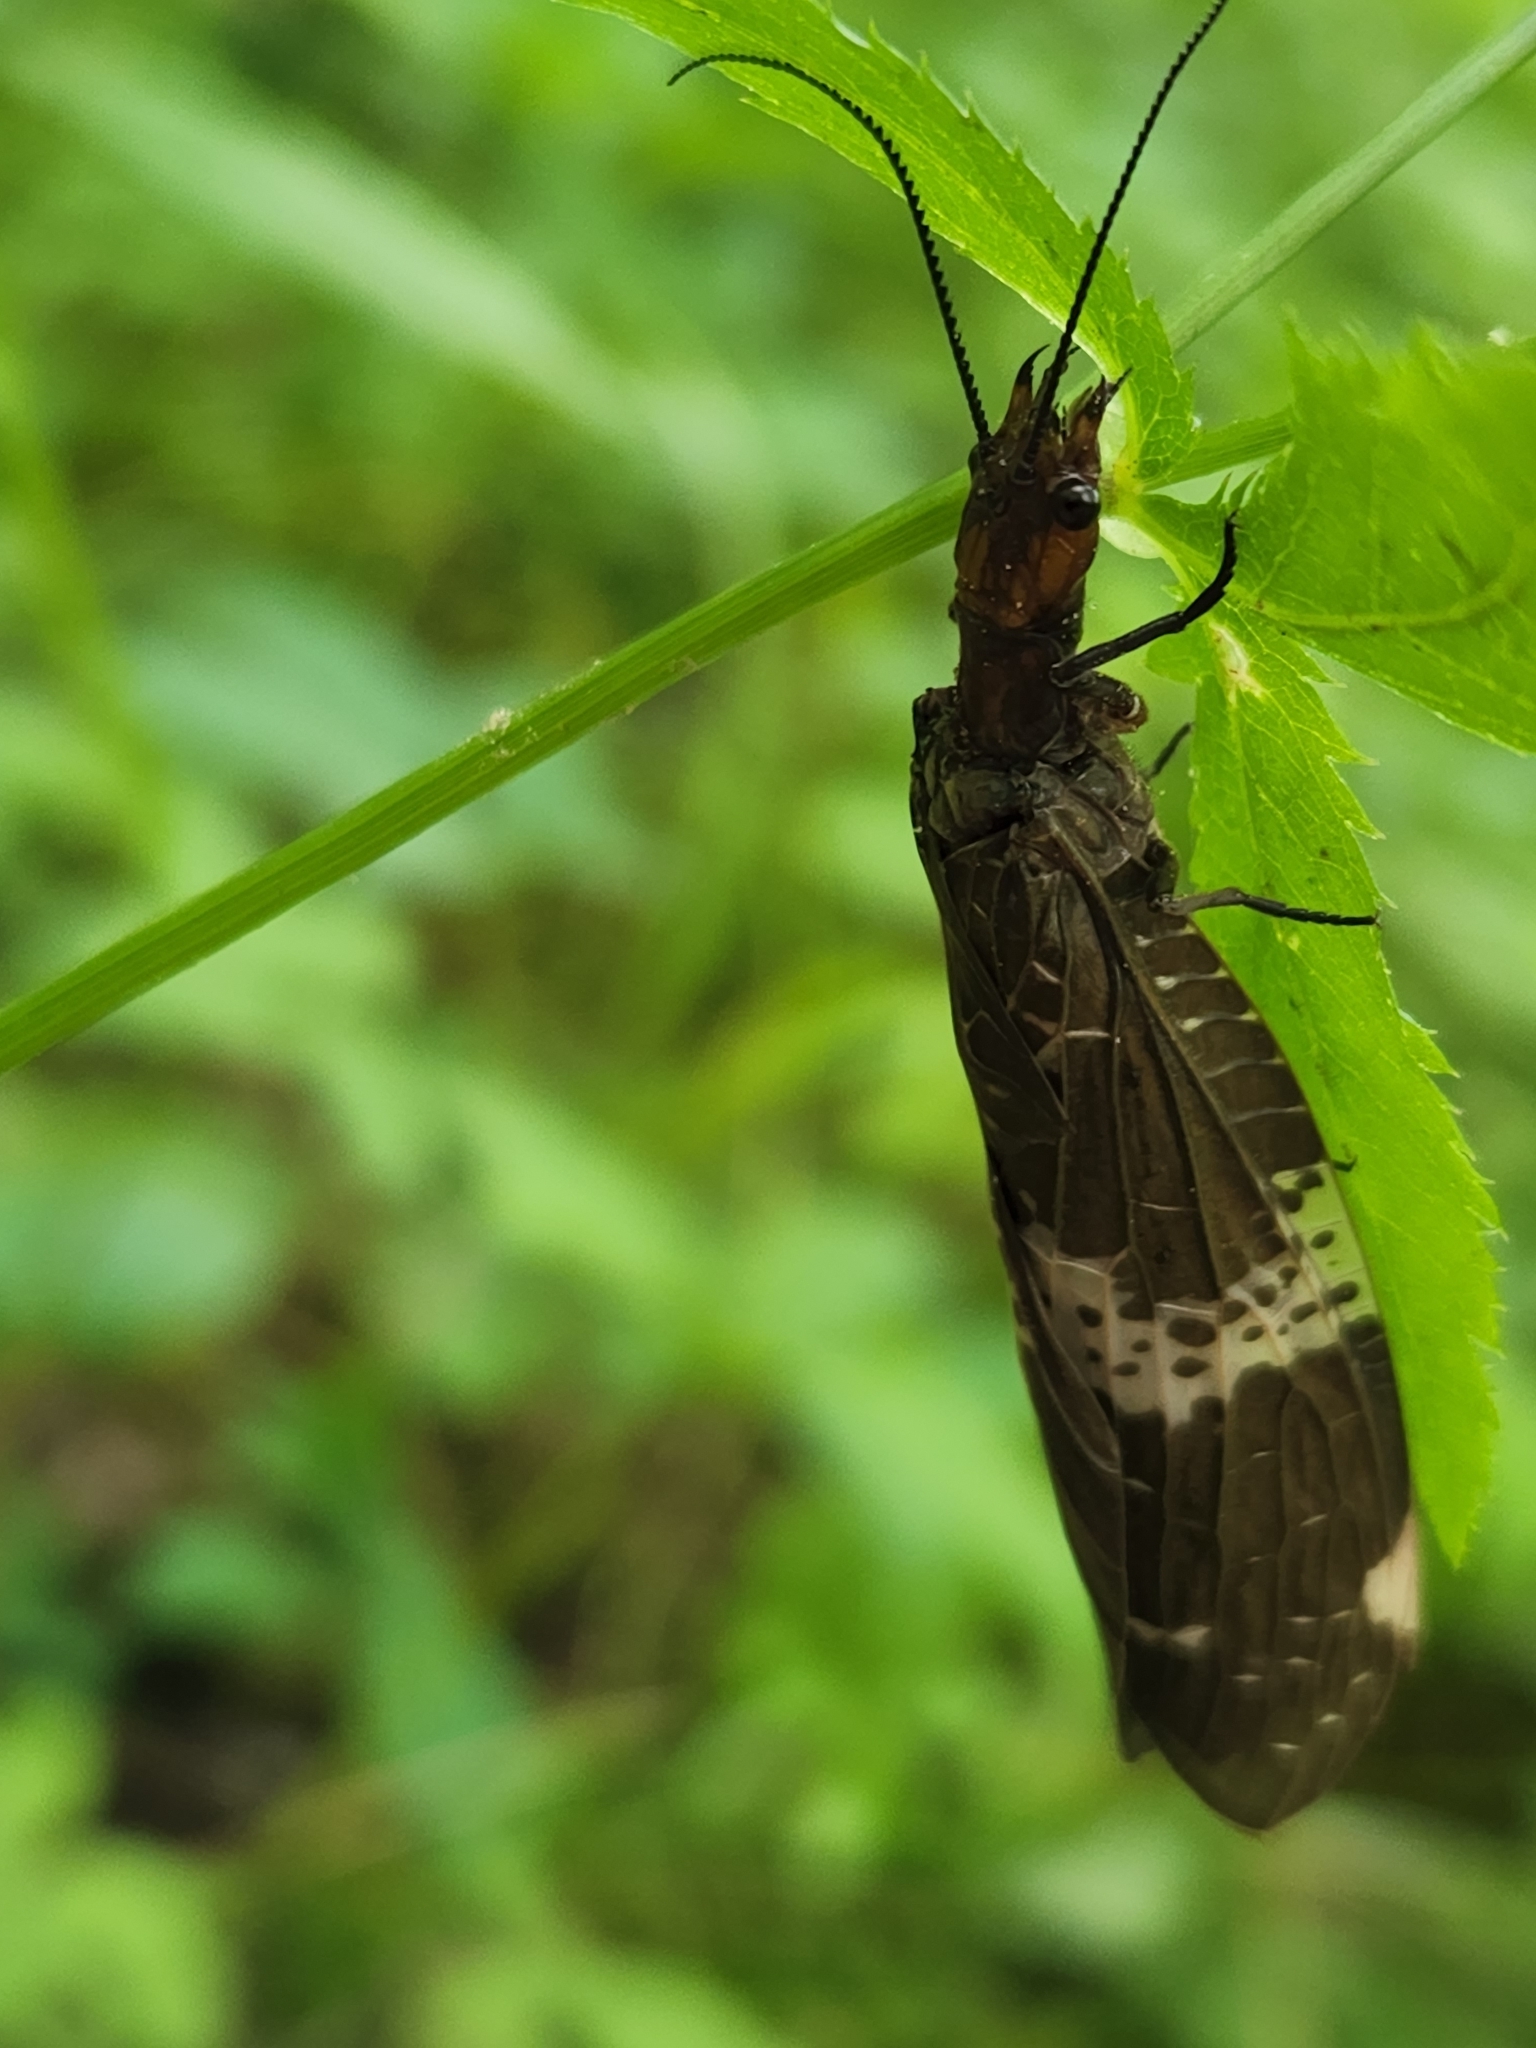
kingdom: Animalia
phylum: Arthropoda
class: Insecta
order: Megaloptera
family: Corydalidae
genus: Nigronia
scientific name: Nigronia fasciata
